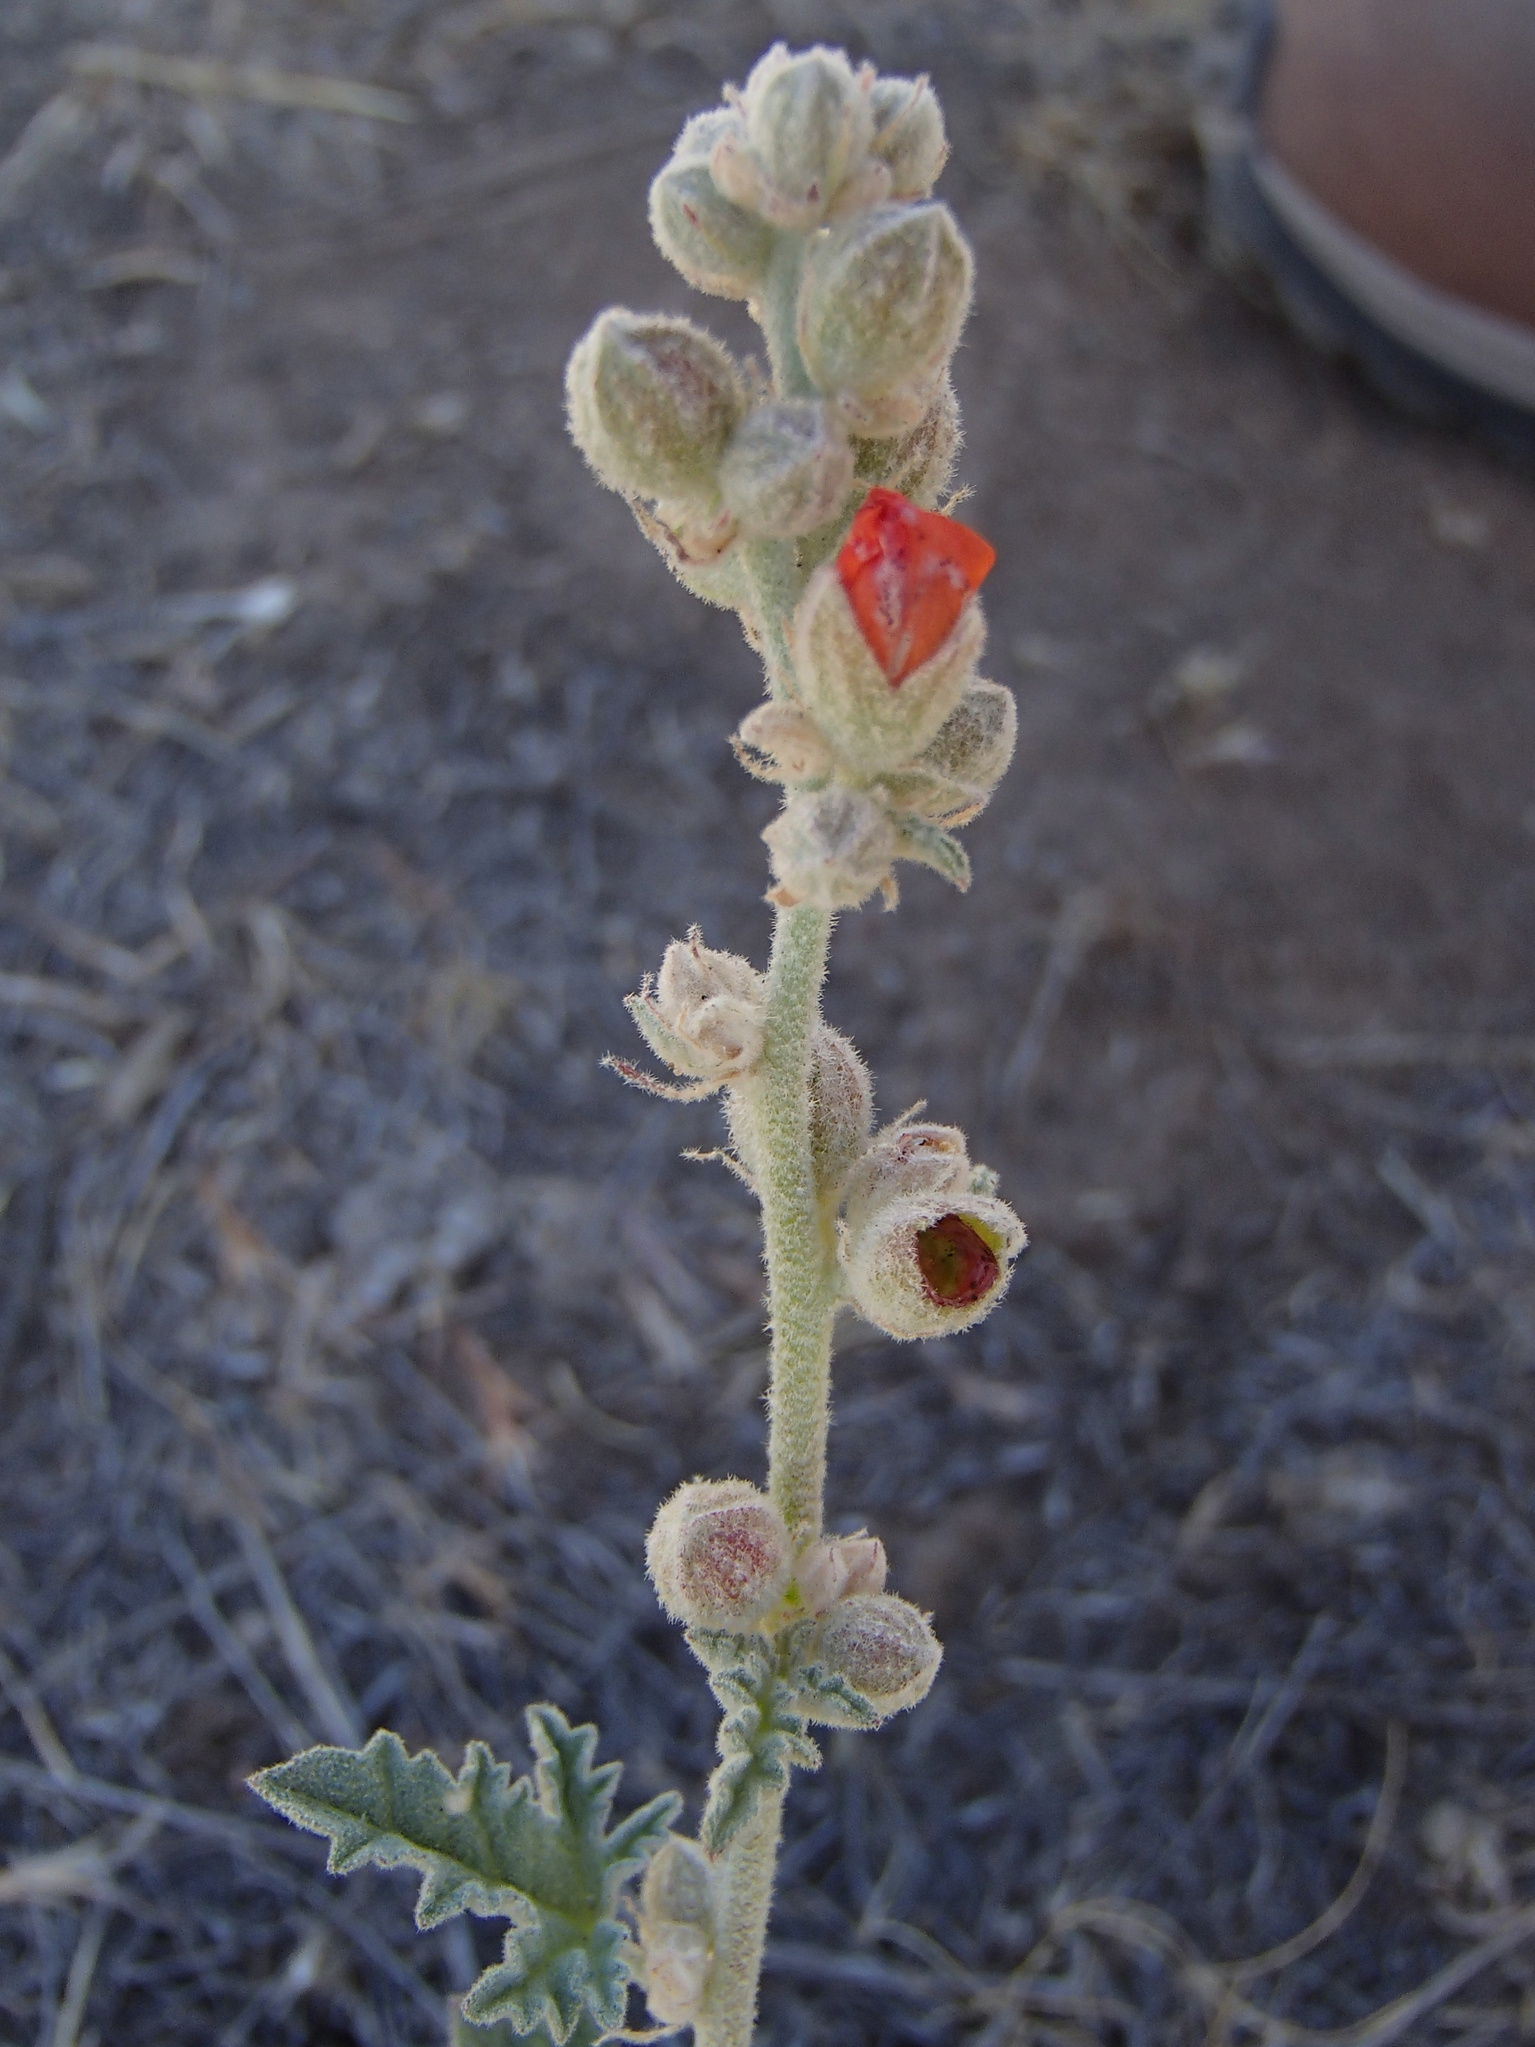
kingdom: Plantae
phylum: Tracheophyta
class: Magnoliopsida
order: Malvales
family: Malvaceae
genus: Sphaeralcea
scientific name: Sphaeralcea munroana
